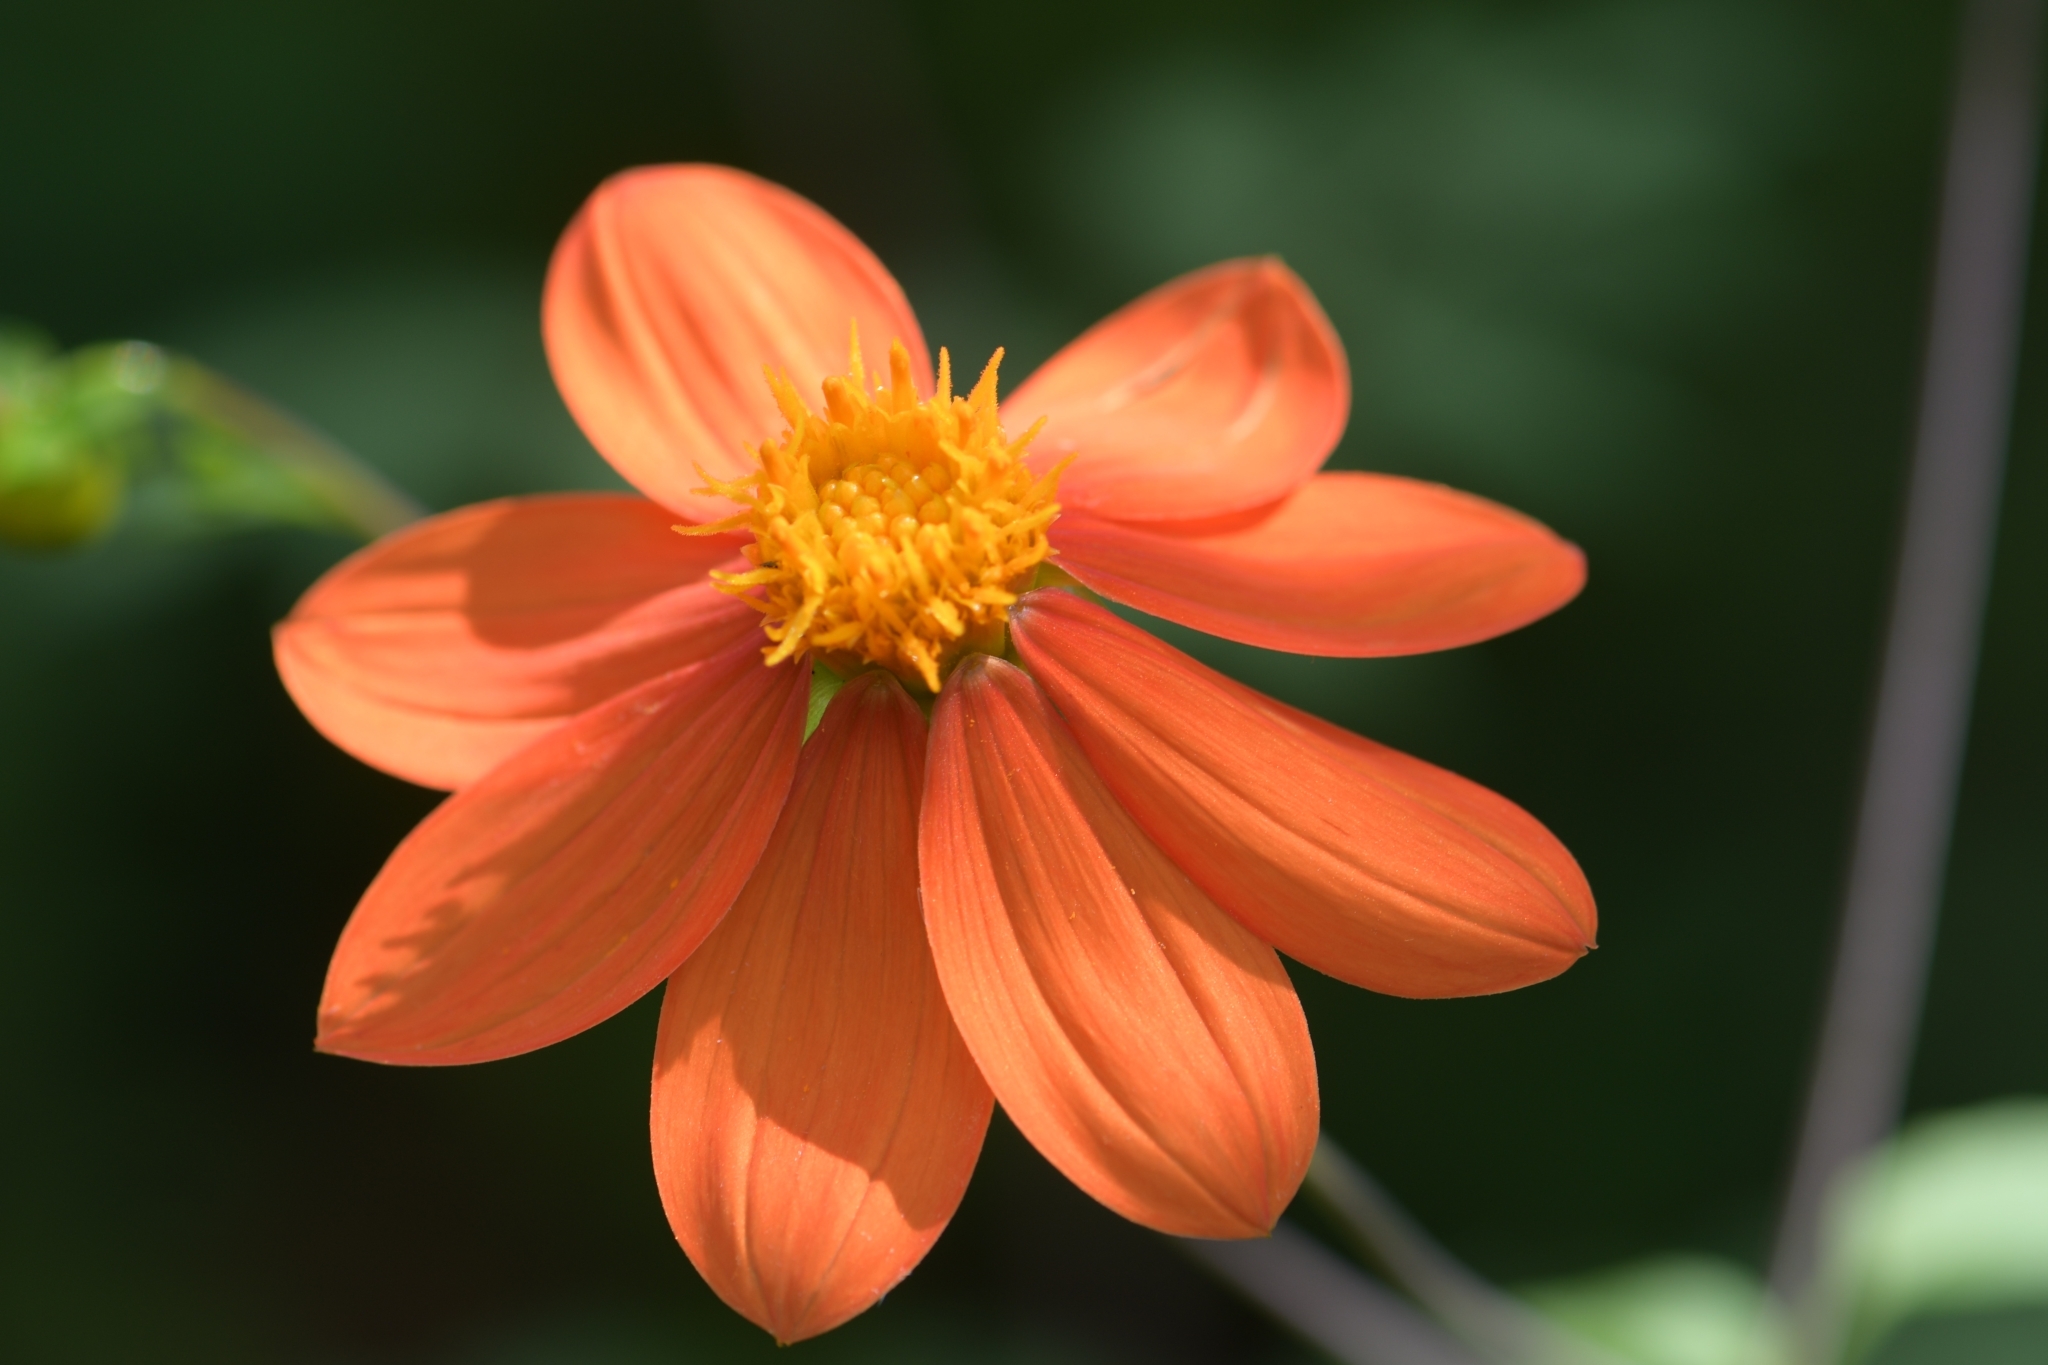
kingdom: Plantae
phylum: Tracheophyta
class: Magnoliopsida
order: Asterales
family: Asteraceae
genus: Dahlia
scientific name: Dahlia coccinea
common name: Red dahlia
